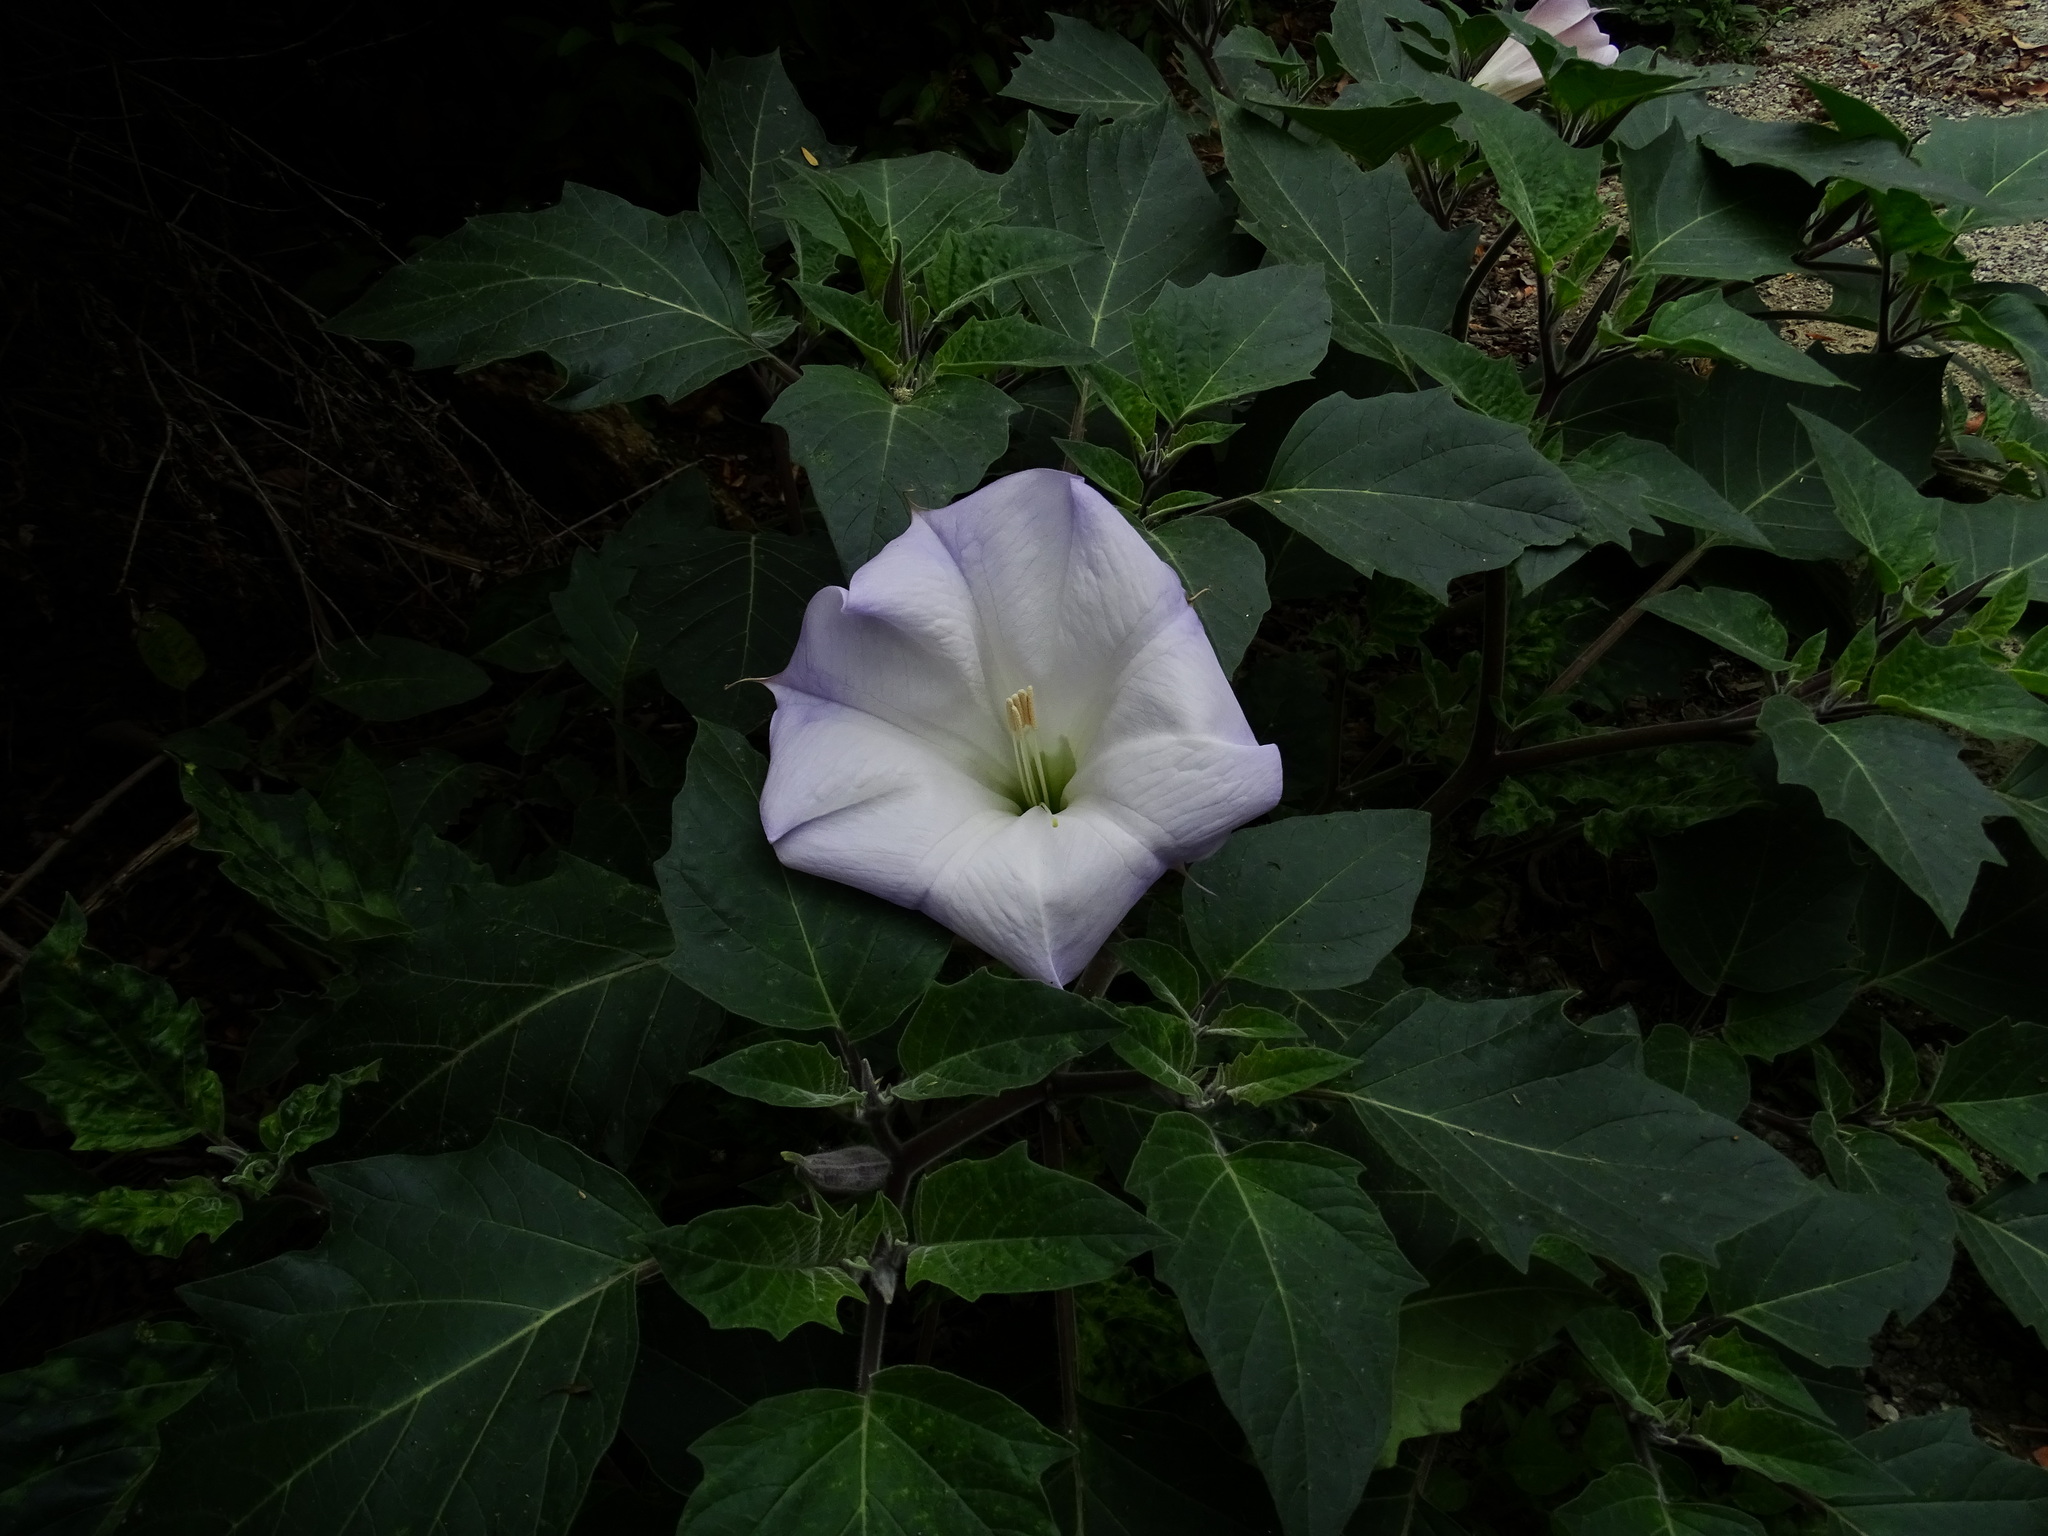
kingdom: Plantae
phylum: Tracheophyta
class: Magnoliopsida
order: Solanales
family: Solanaceae
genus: Datura
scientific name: Datura wrightii
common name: Sacred thorn-apple
